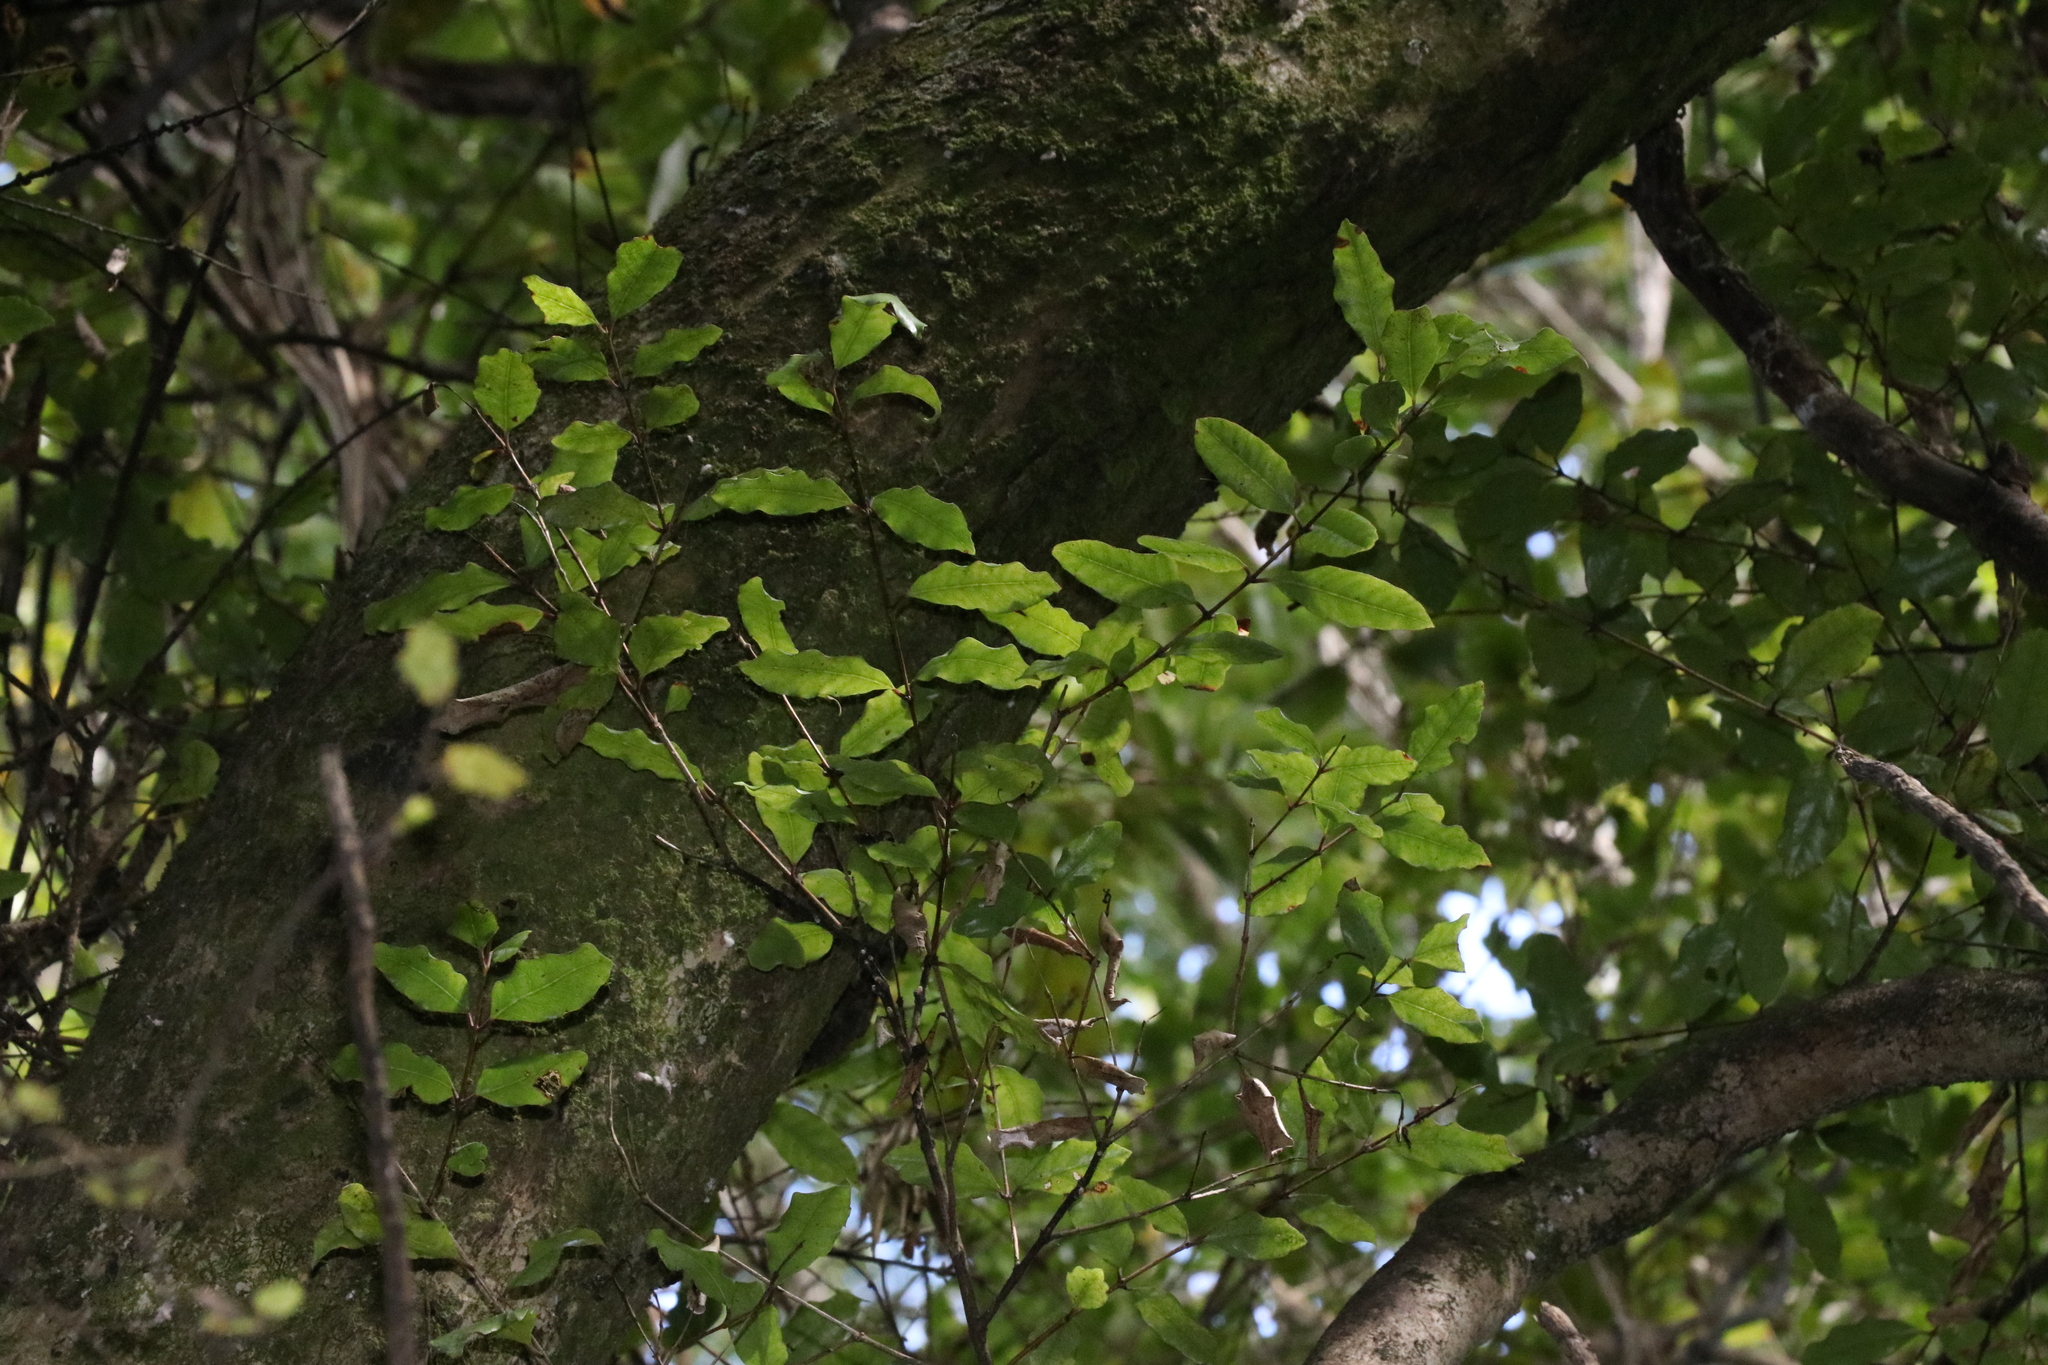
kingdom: Plantae
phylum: Tracheophyta
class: Magnoliopsida
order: Myrtales
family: Myrtaceae
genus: Syzygium
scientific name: Syzygium maire
